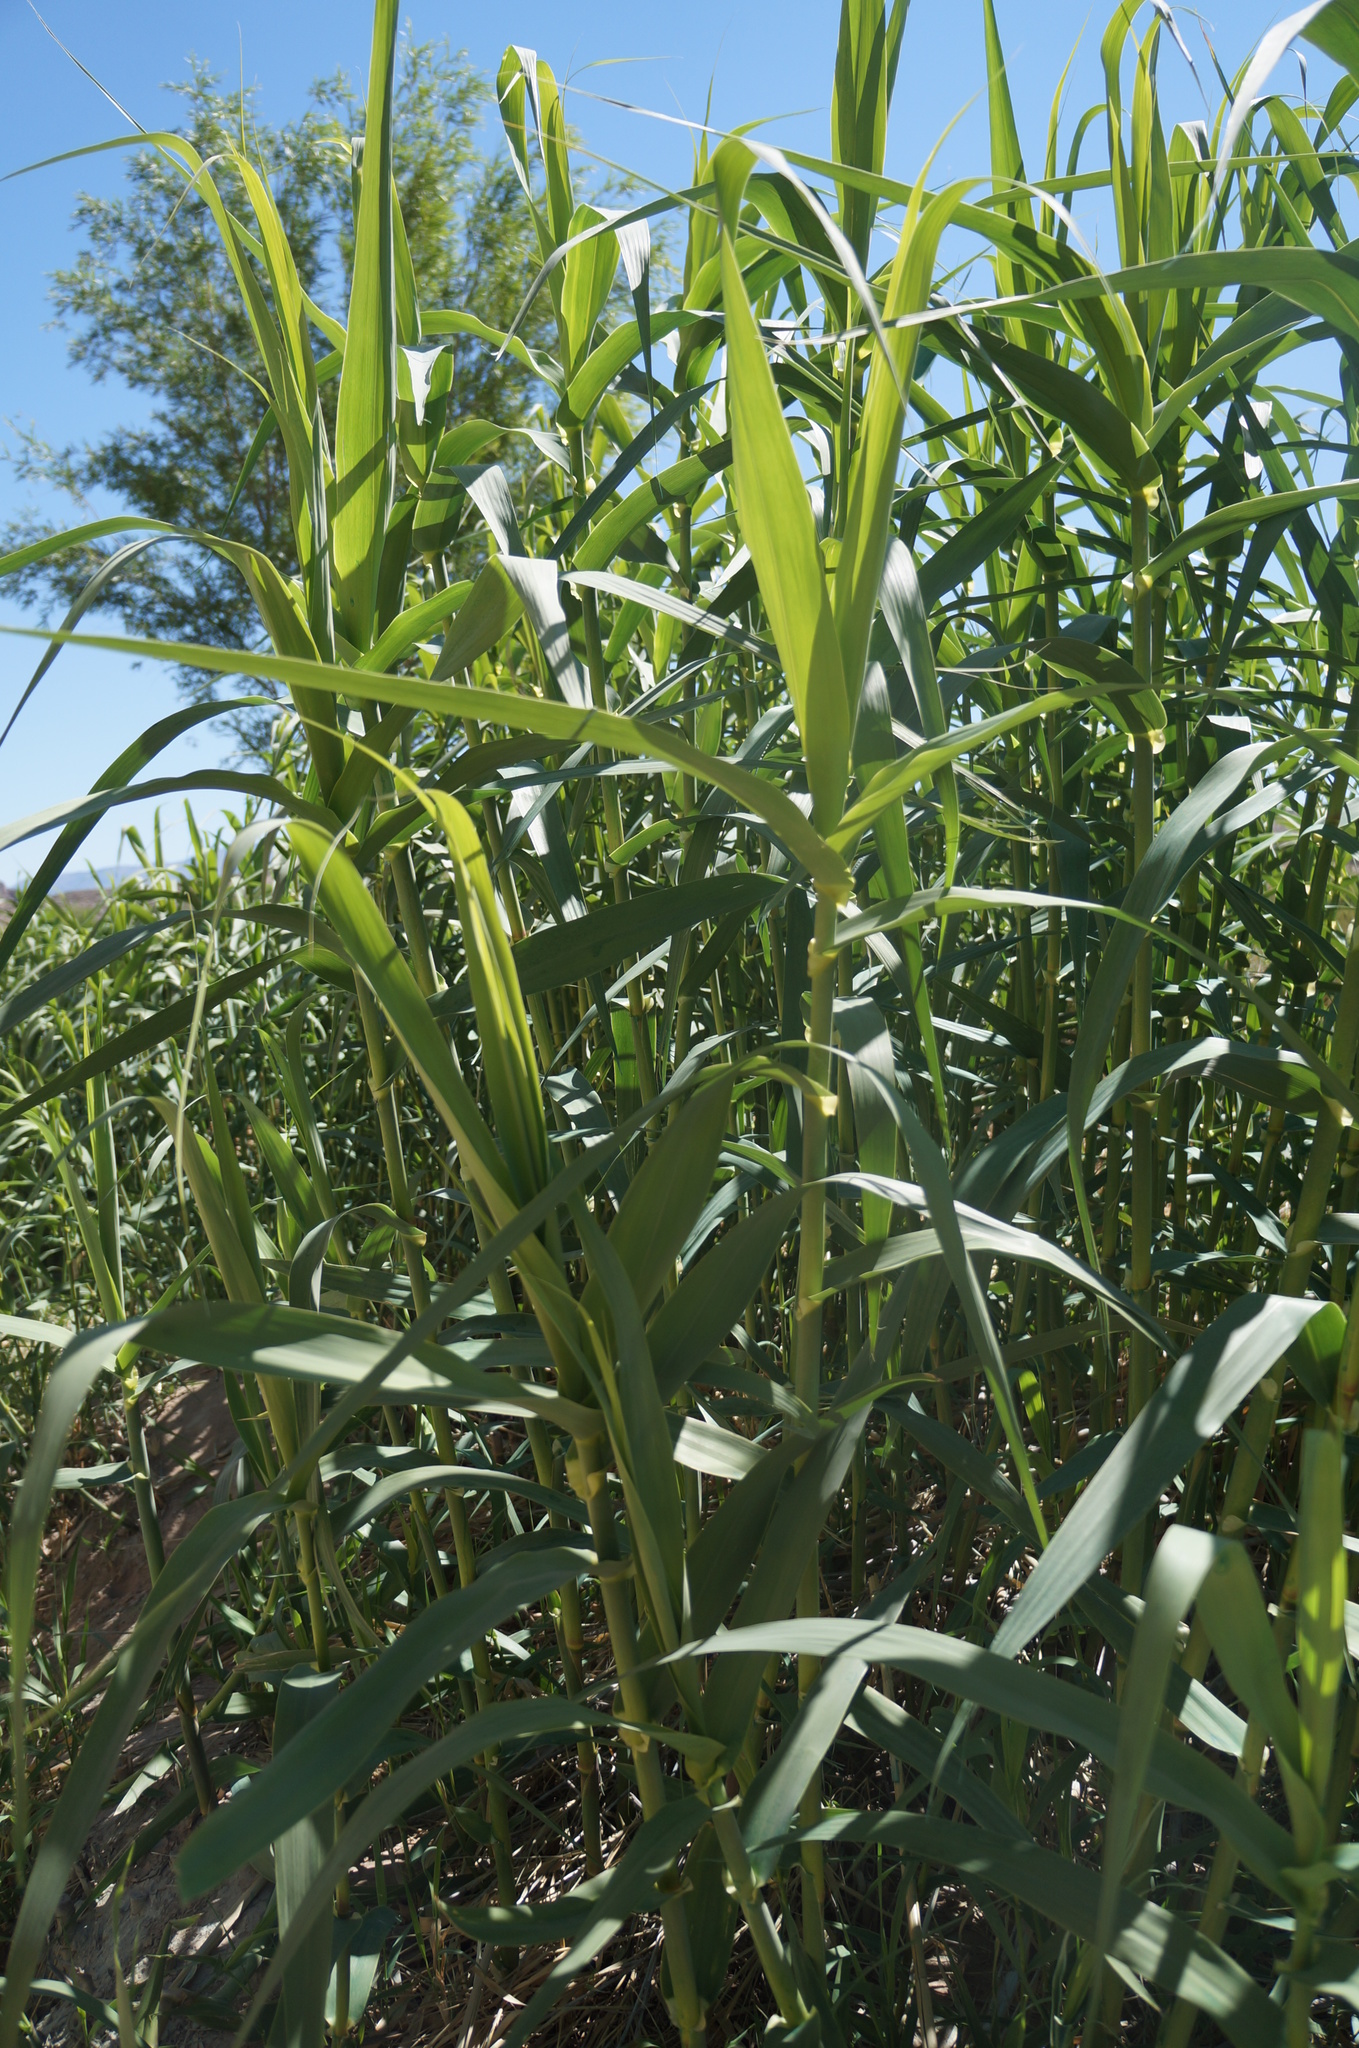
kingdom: Plantae
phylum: Tracheophyta
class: Liliopsida
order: Poales
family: Poaceae
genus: Arundo
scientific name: Arundo donax
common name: Giant reed
